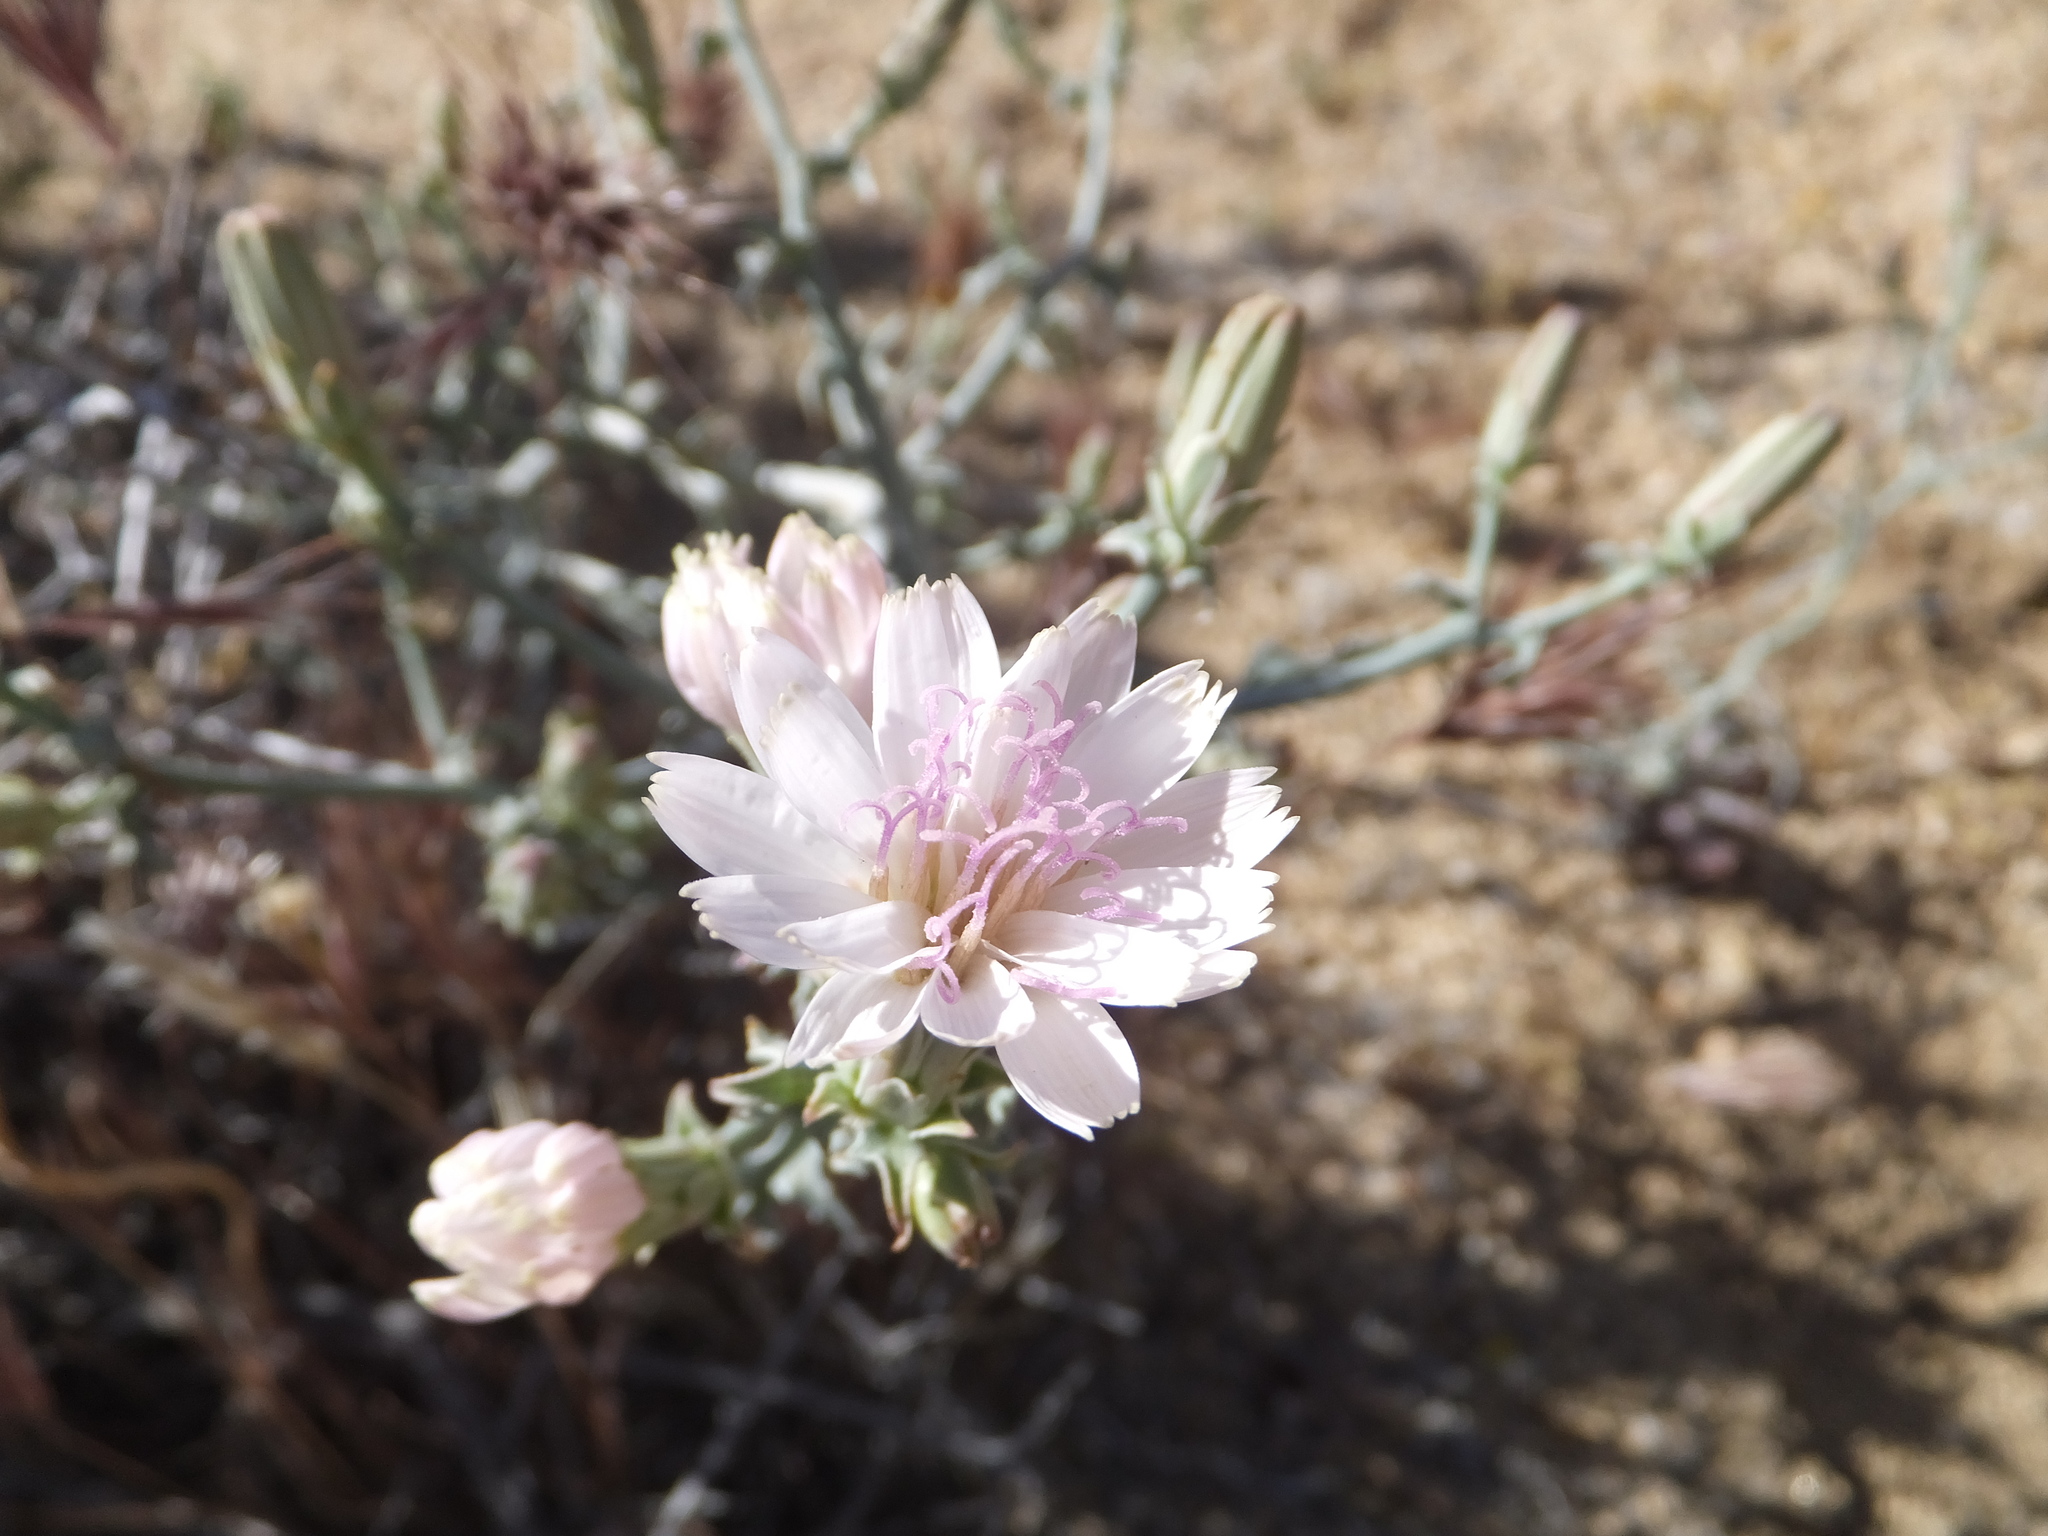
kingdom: Plantae
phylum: Tracheophyta
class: Magnoliopsida
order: Asterales
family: Asteraceae
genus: Stephanomeria
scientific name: Stephanomeria parryi
